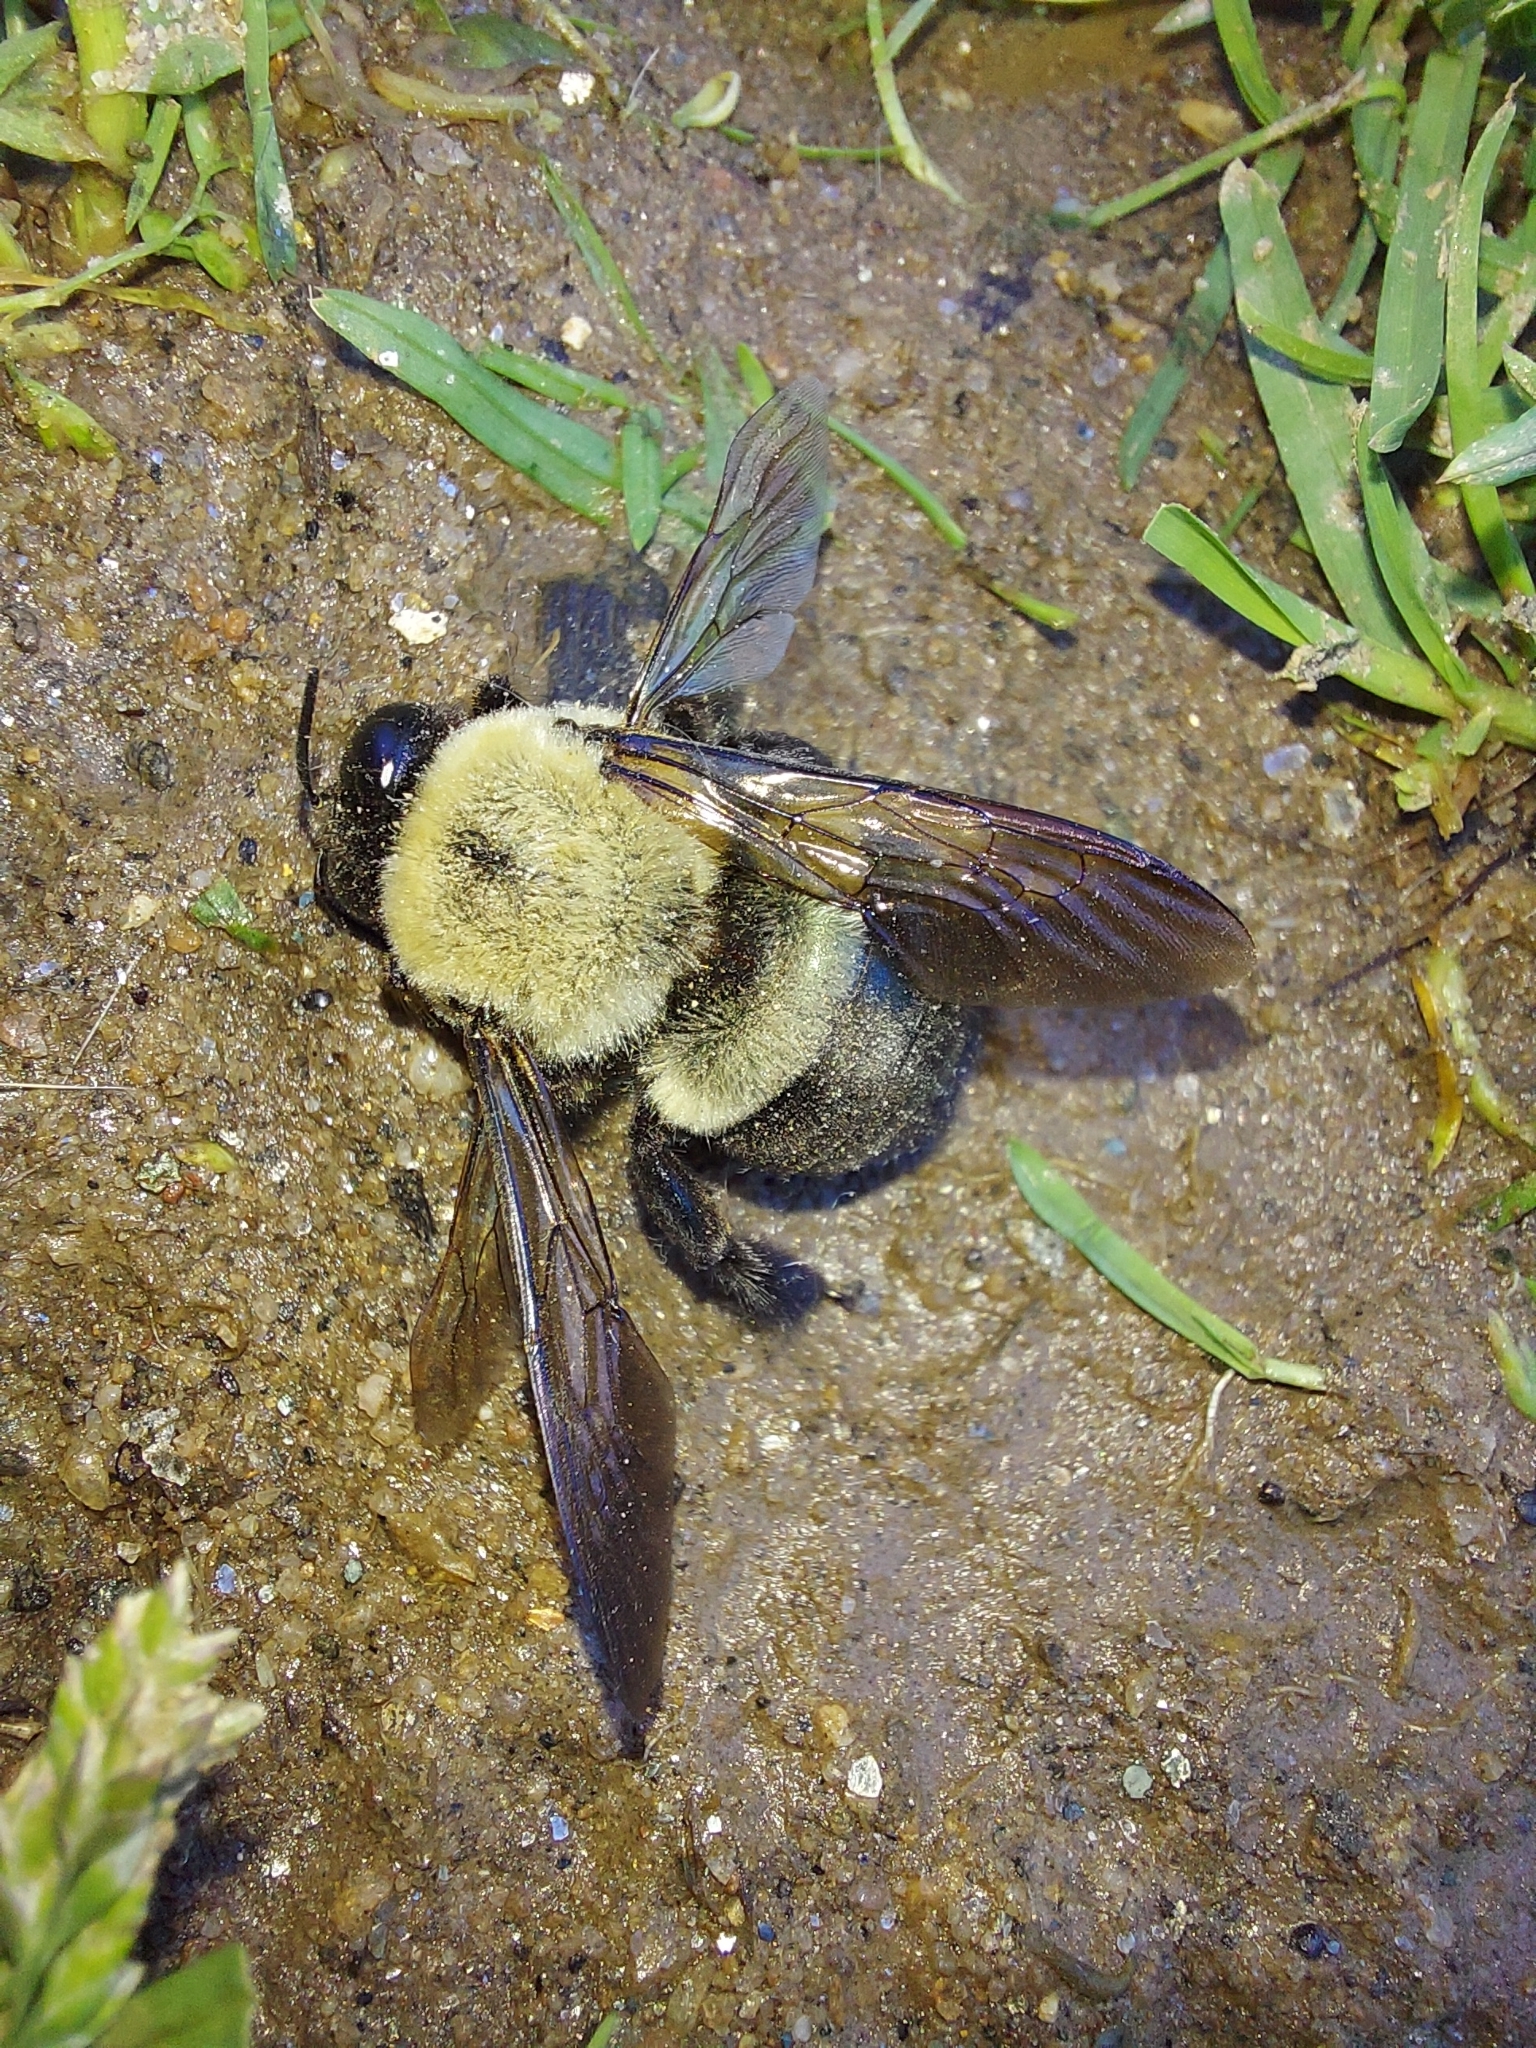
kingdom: Animalia
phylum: Arthropoda
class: Insecta
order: Hymenoptera
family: Apidae
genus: Xylocopa
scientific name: Xylocopa virginica
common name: Carpenter bee
